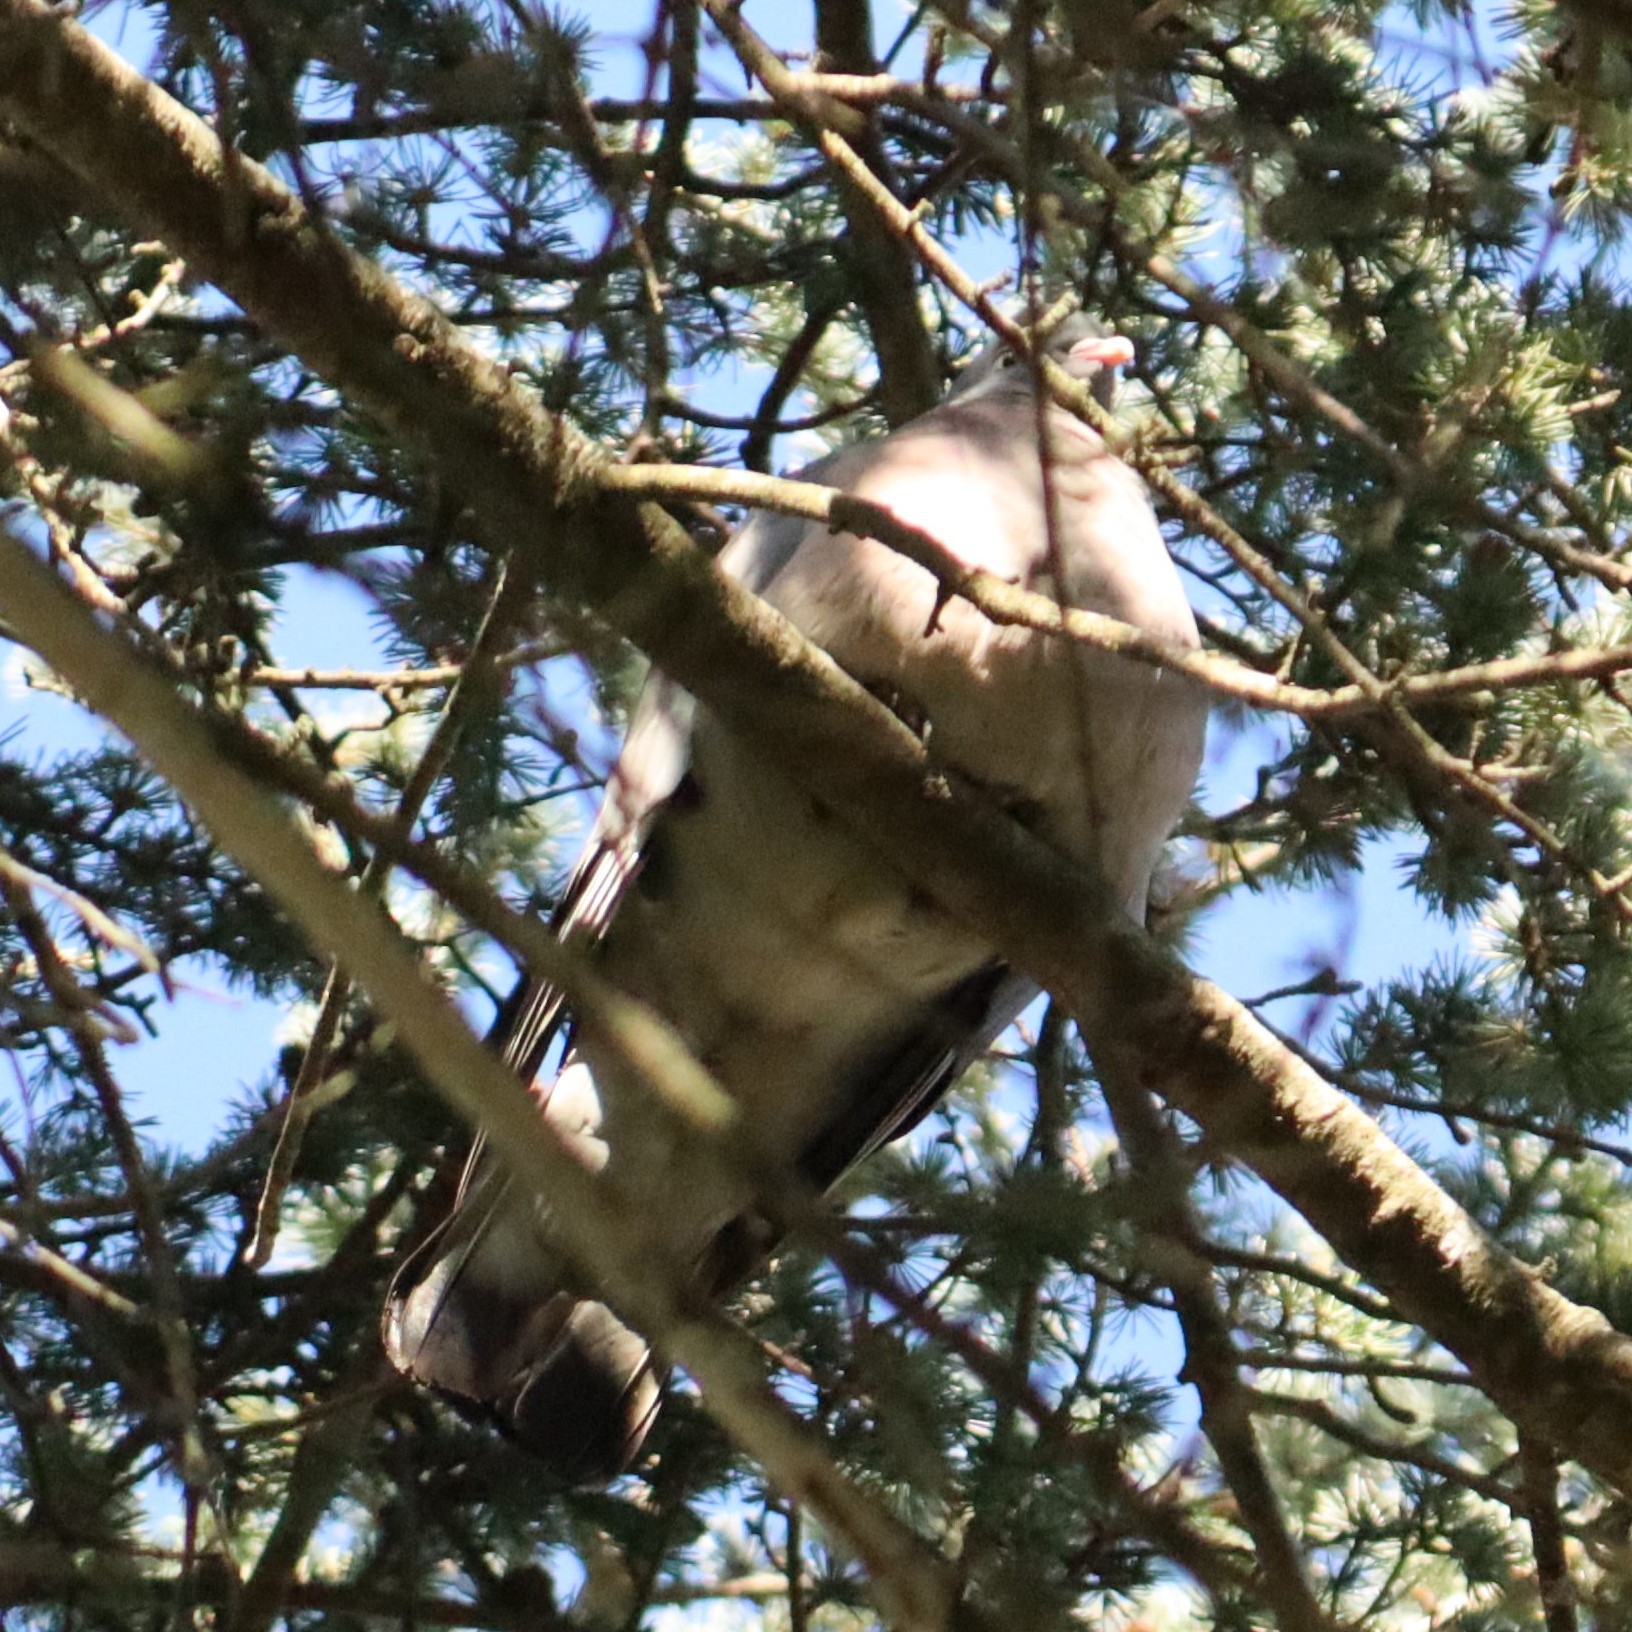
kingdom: Animalia
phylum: Chordata
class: Aves
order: Columbiformes
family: Columbidae
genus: Columba
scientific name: Columba palumbus
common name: Common wood pigeon
